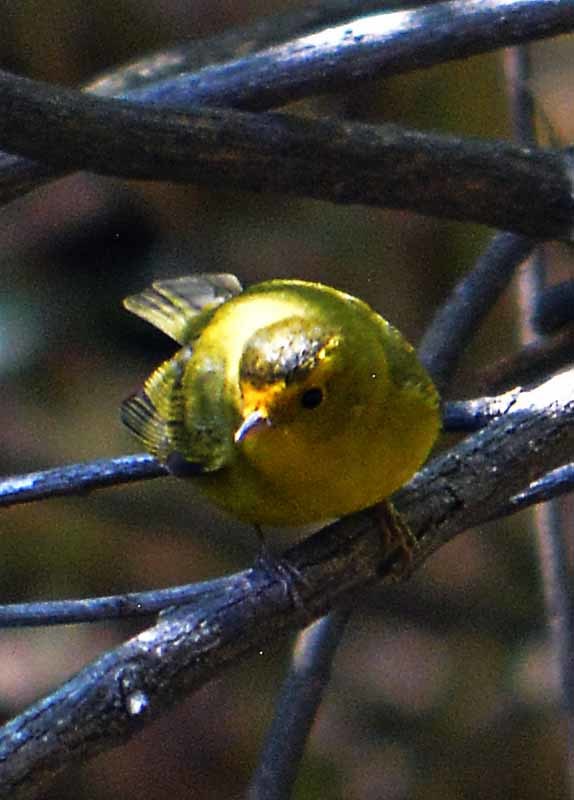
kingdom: Animalia
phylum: Chordata
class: Aves
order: Passeriformes
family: Parulidae
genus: Cardellina
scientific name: Cardellina pusilla
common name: Wilson's warbler
